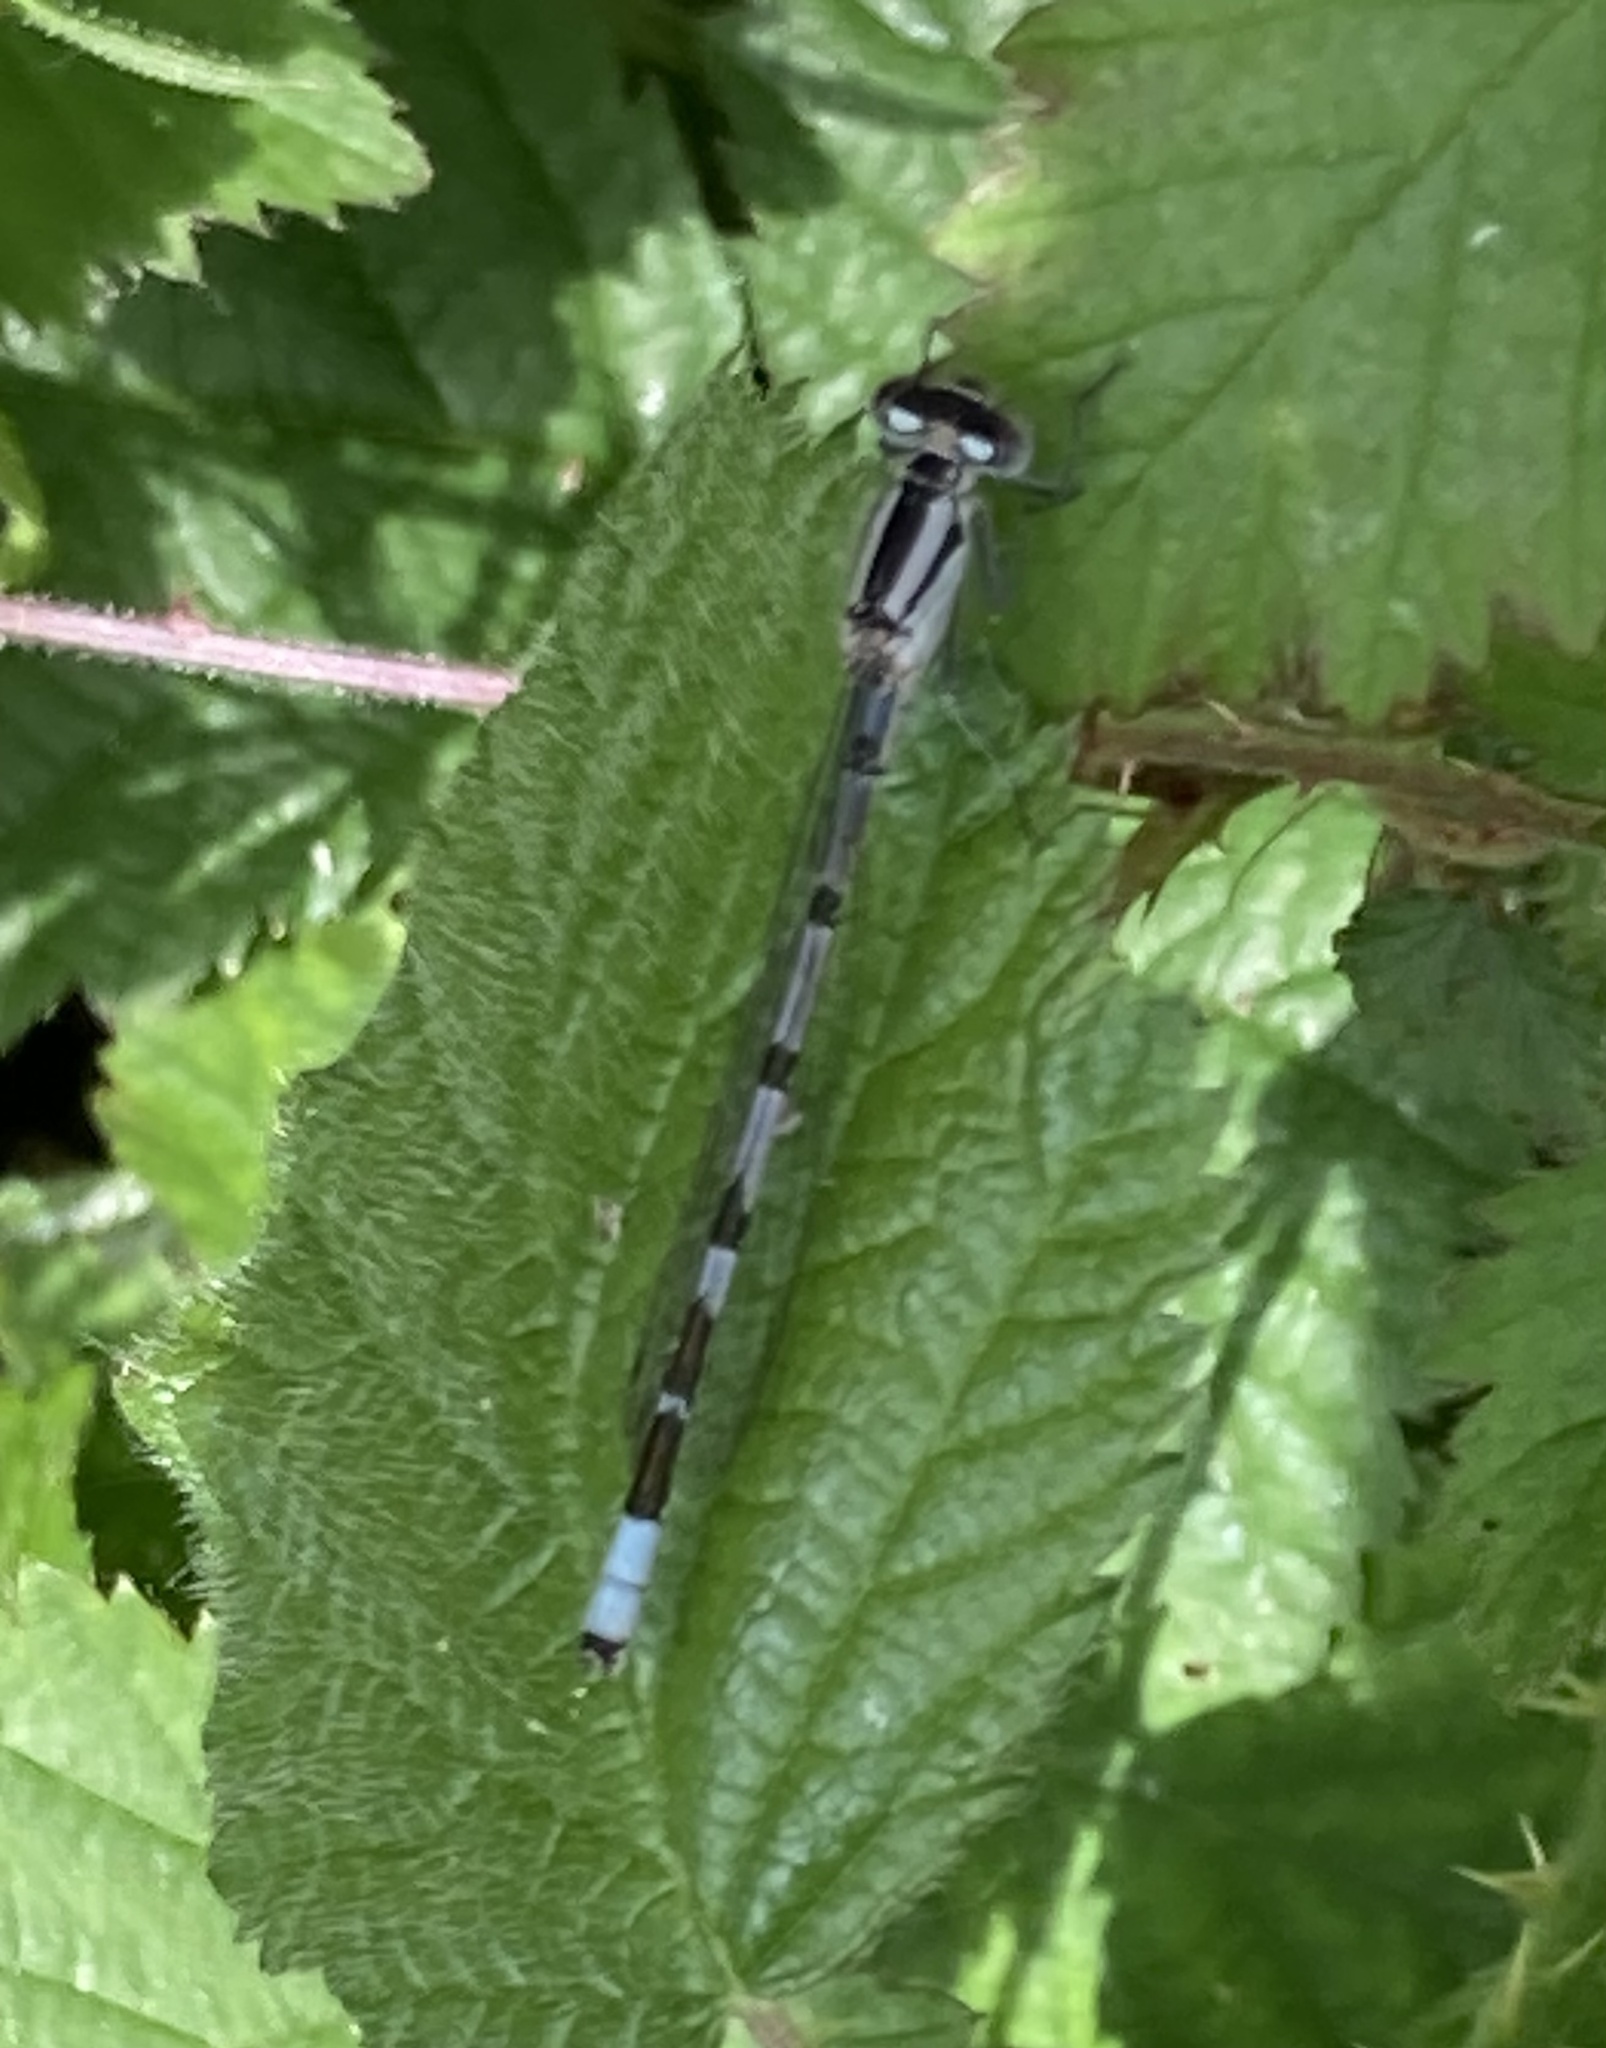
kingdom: Animalia
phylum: Arthropoda
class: Insecta
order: Odonata
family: Coenagrionidae
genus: Enallagma
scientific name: Enallagma cyathigerum
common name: Common blue damselfly
